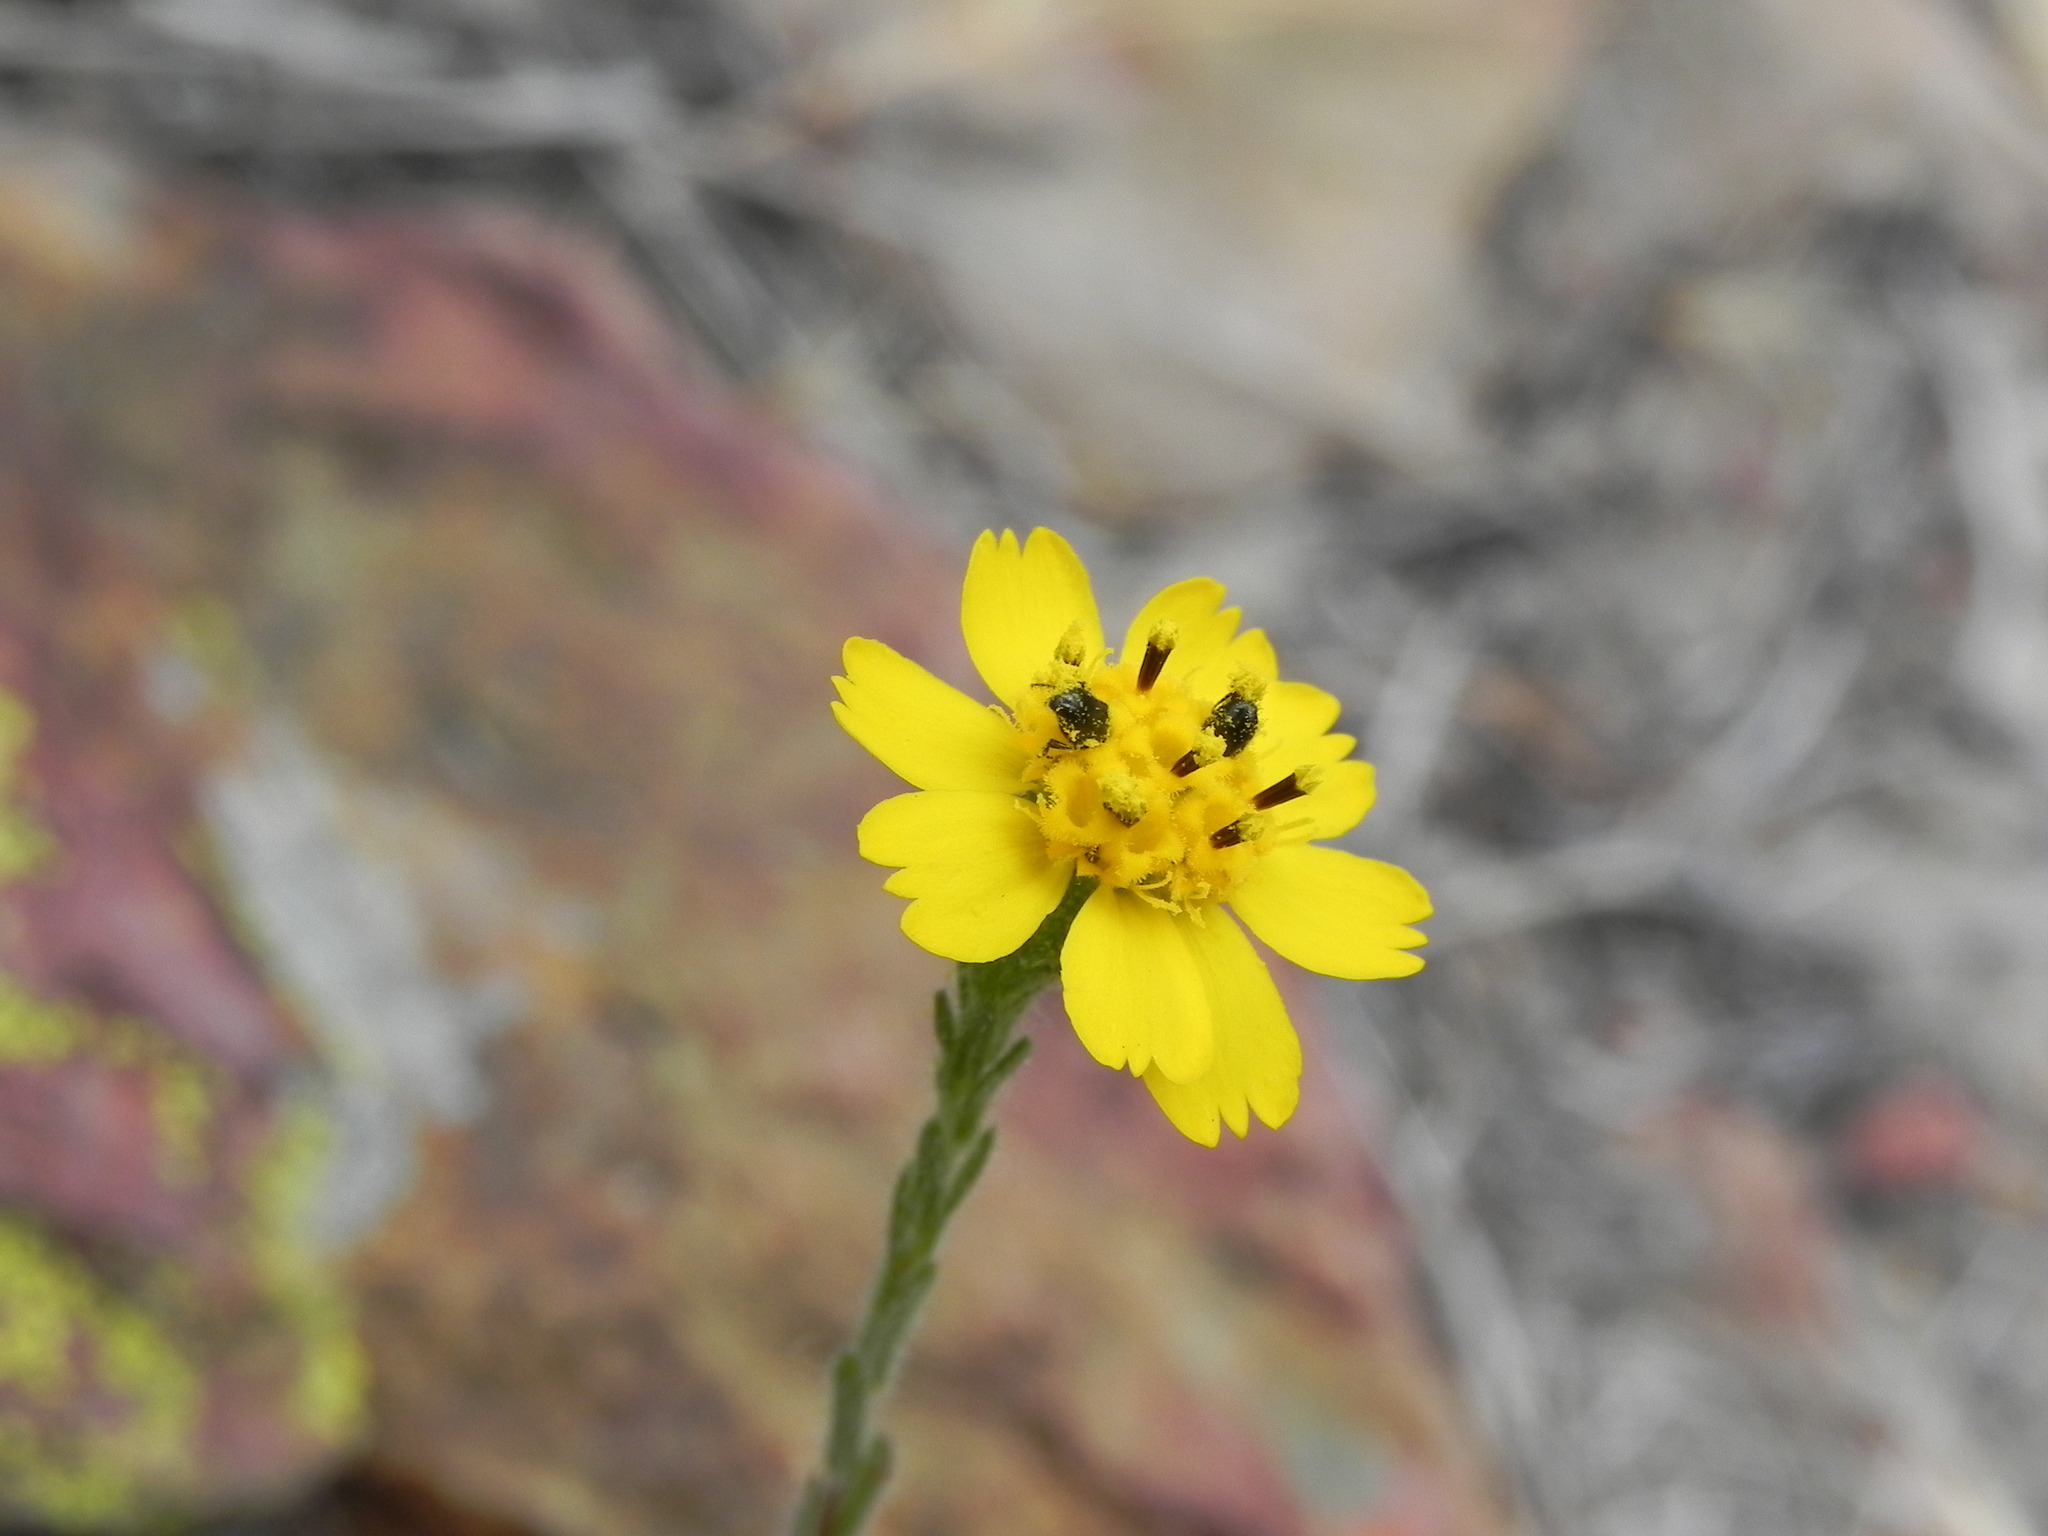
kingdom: Plantae
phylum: Tracheophyta
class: Magnoliopsida
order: Asterales
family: Asteraceae
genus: Deinandra
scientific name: Deinandra conjugens
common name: Otay tarplant
